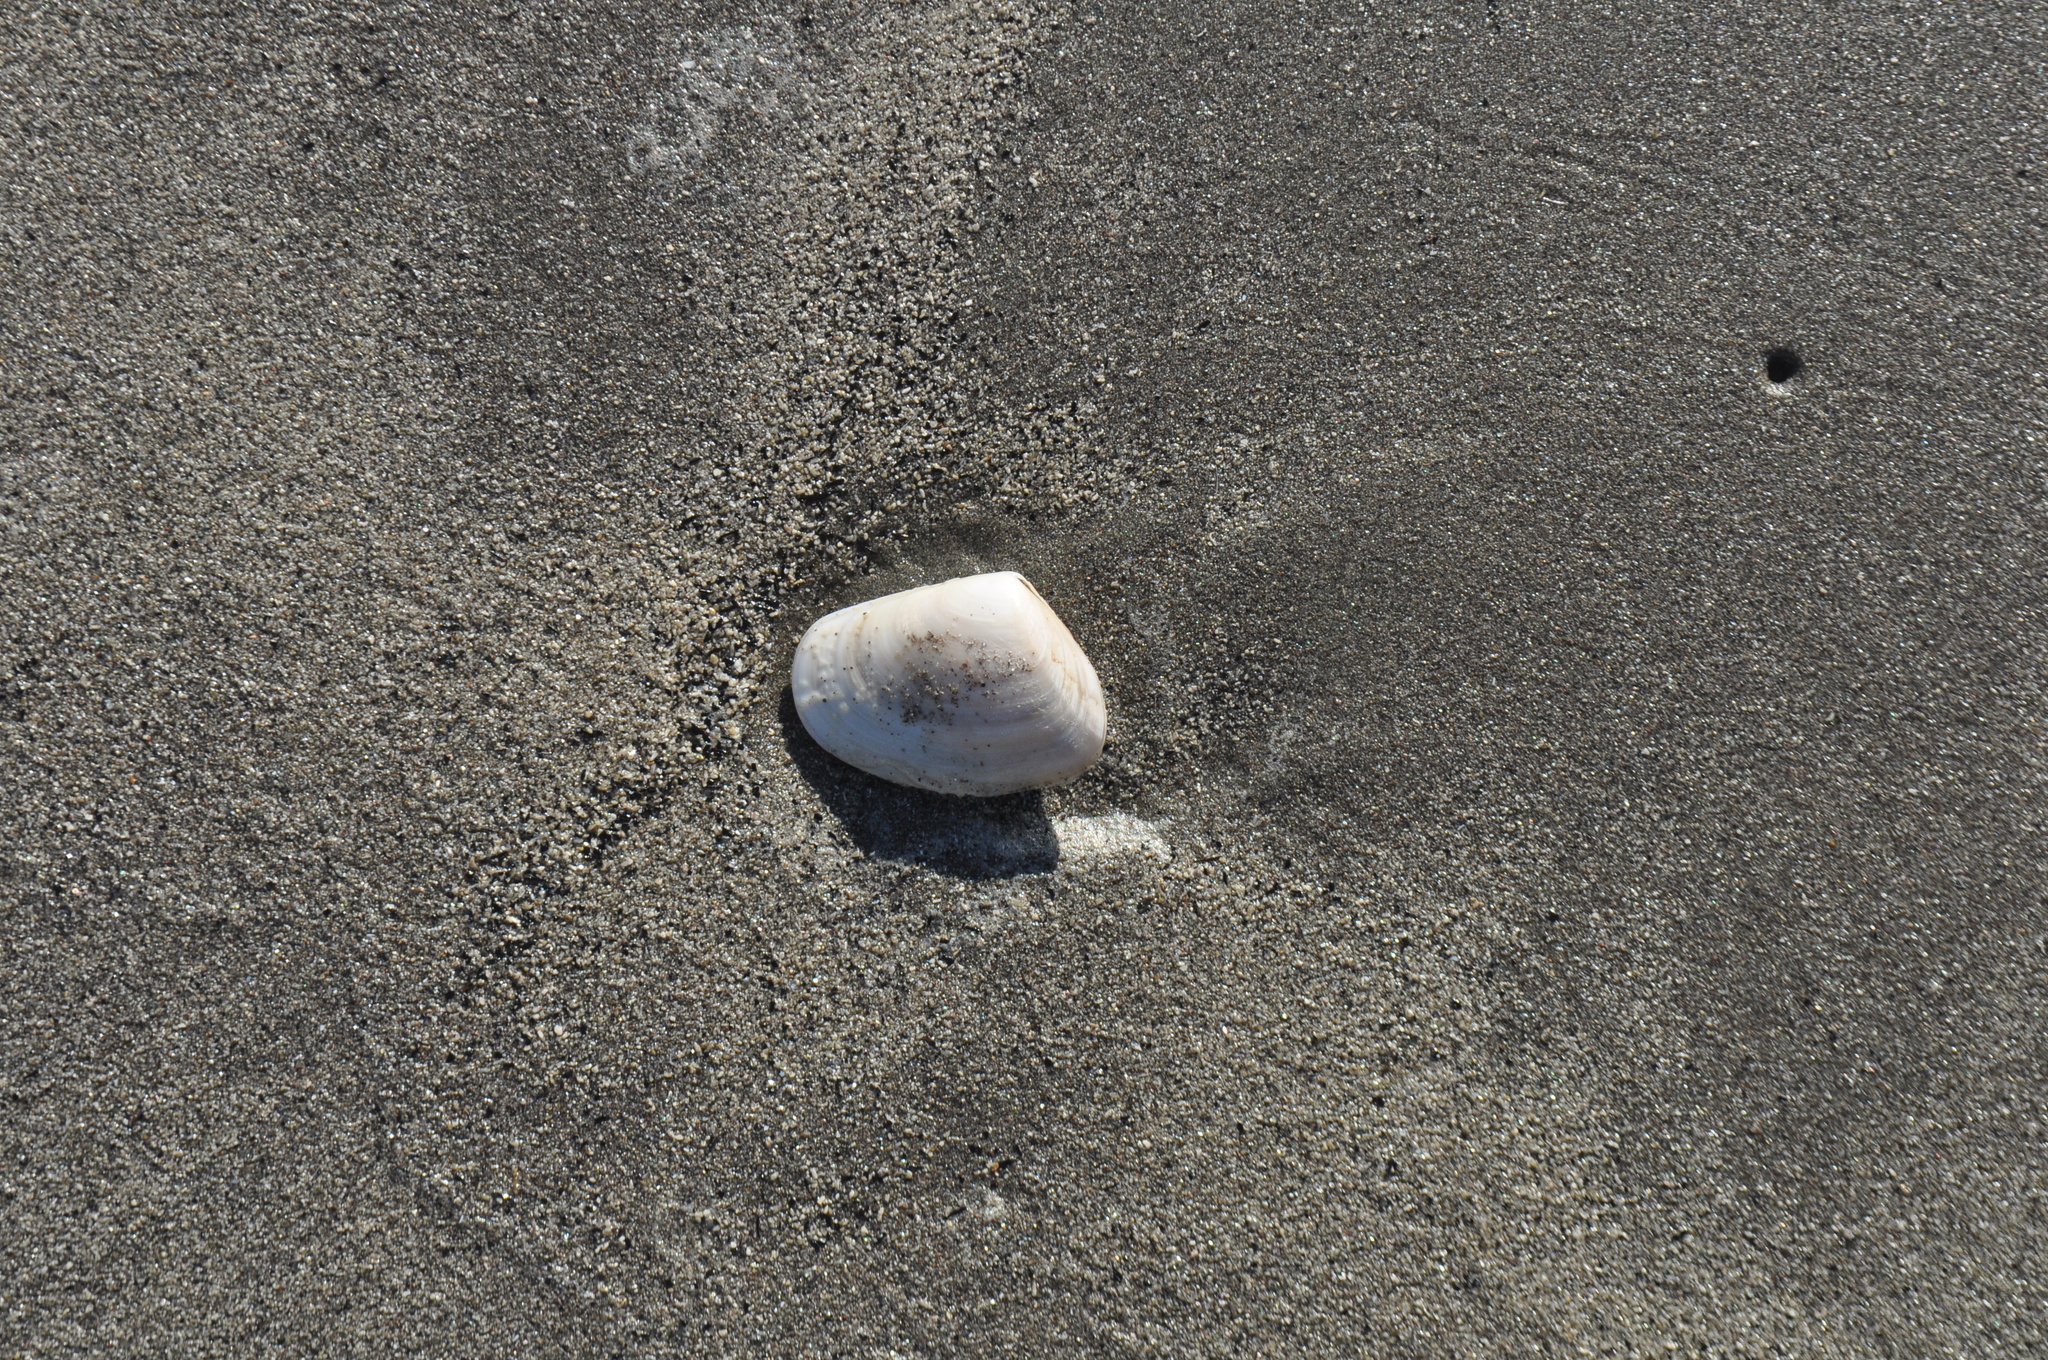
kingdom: Animalia
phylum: Mollusca
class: Bivalvia
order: Venerida
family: Mesodesmatidae
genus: Paphies
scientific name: Paphies donacina
